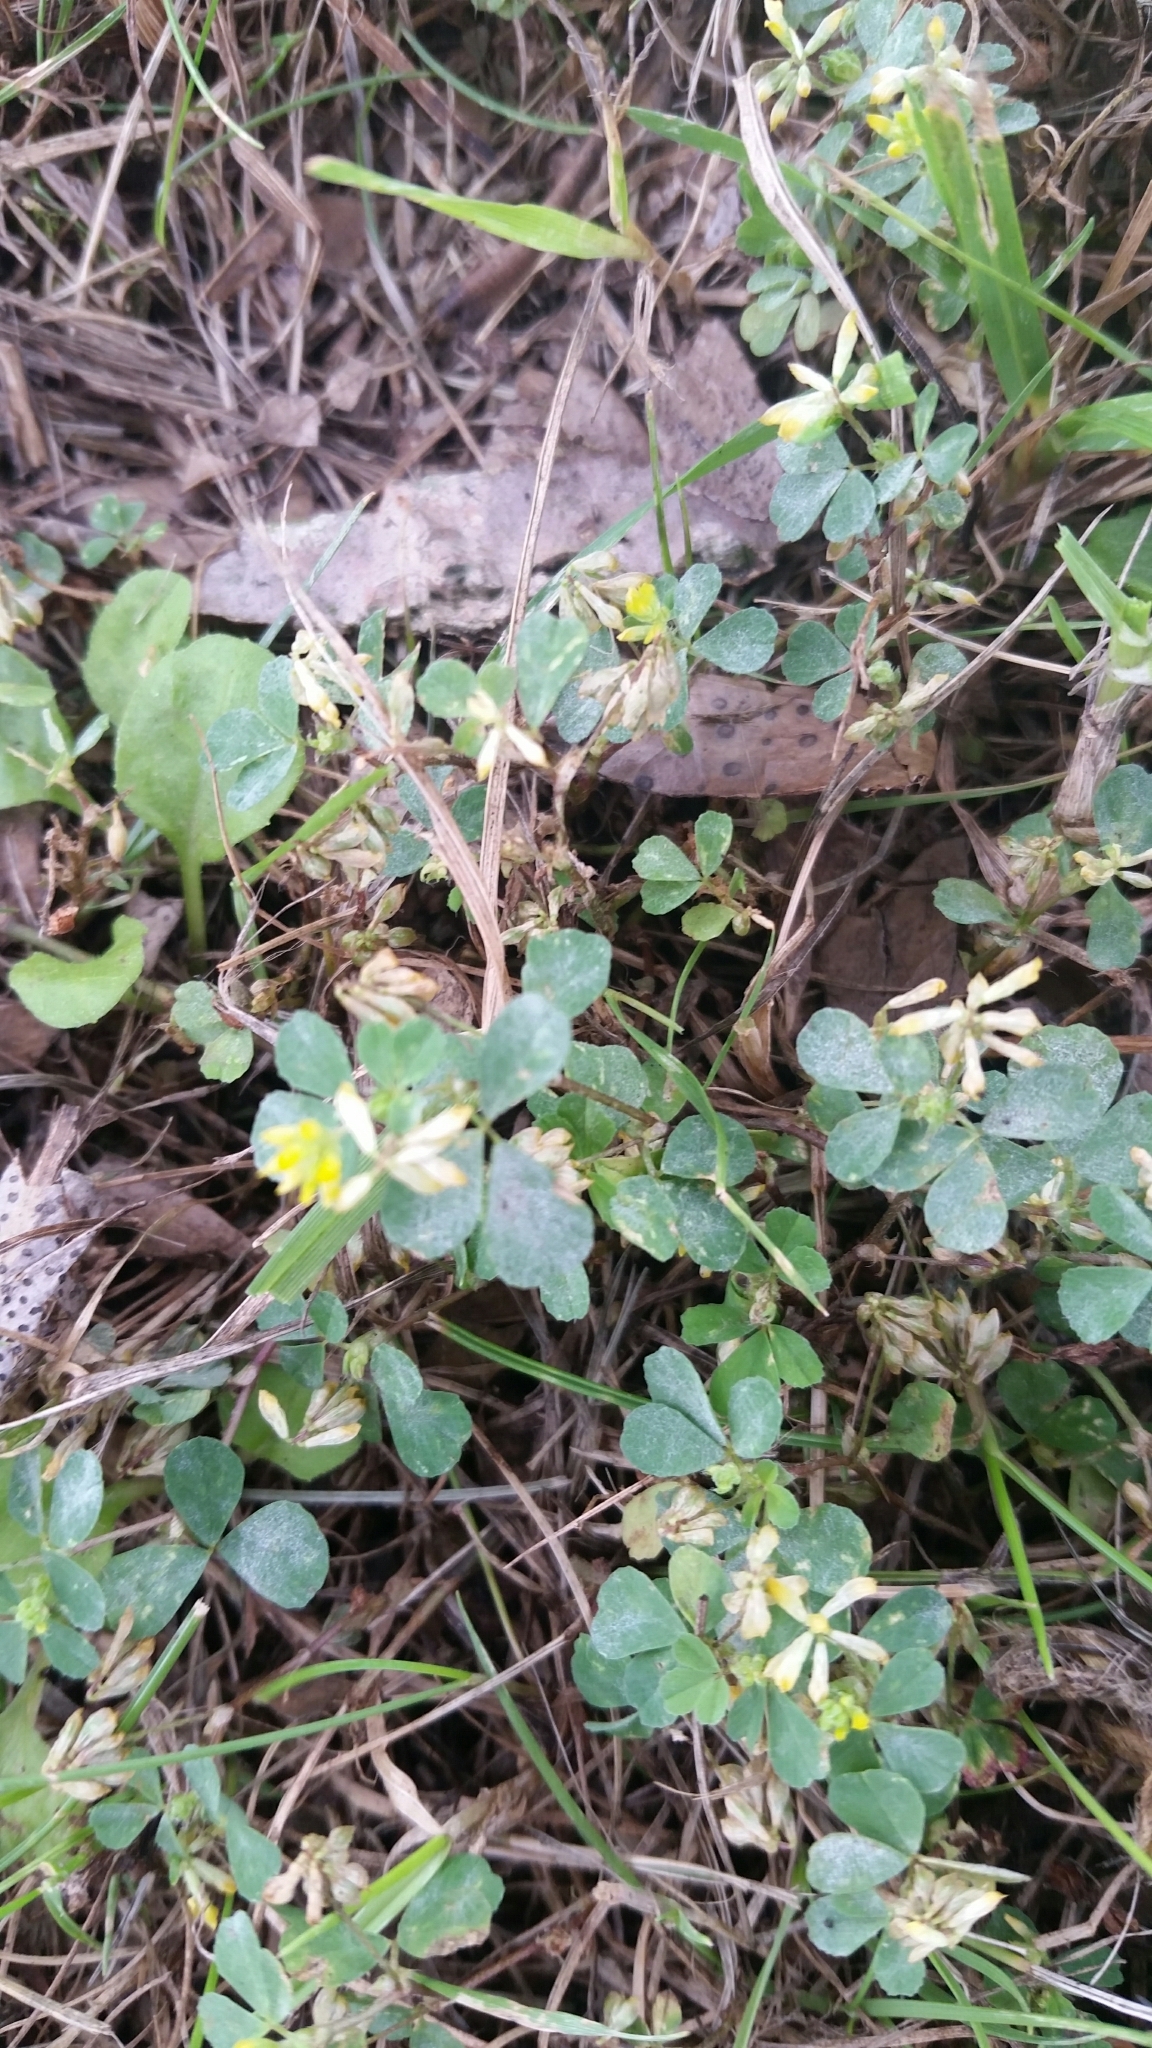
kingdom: Plantae
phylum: Tracheophyta
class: Magnoliopsida
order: Fabales
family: Fabaceae
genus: Trifolium
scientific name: Trifolium dubium
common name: Suckling clover
